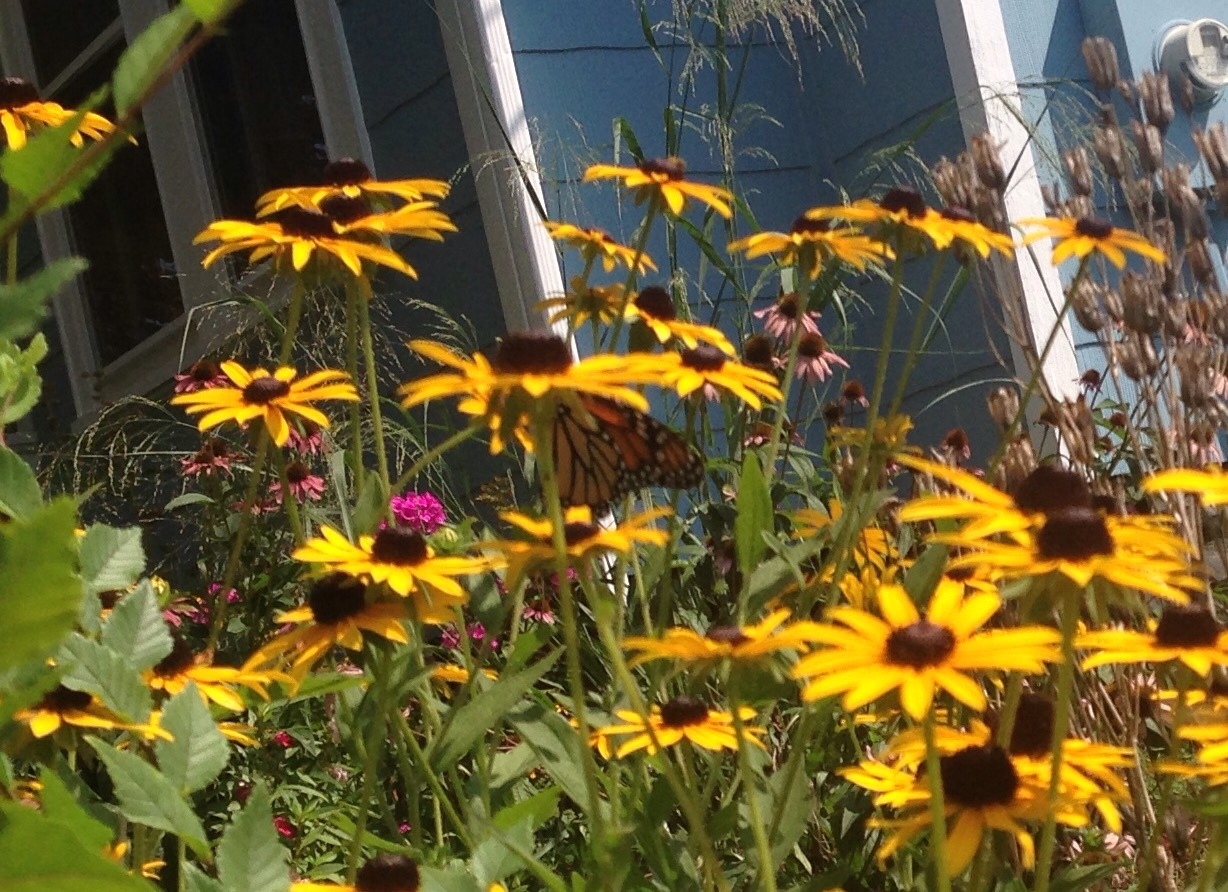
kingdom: Animalia
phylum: Arthropoda
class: Insecta
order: Lepidoptera
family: Nymphalidae
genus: Danaus
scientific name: Danaus plexippus
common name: Monarch
